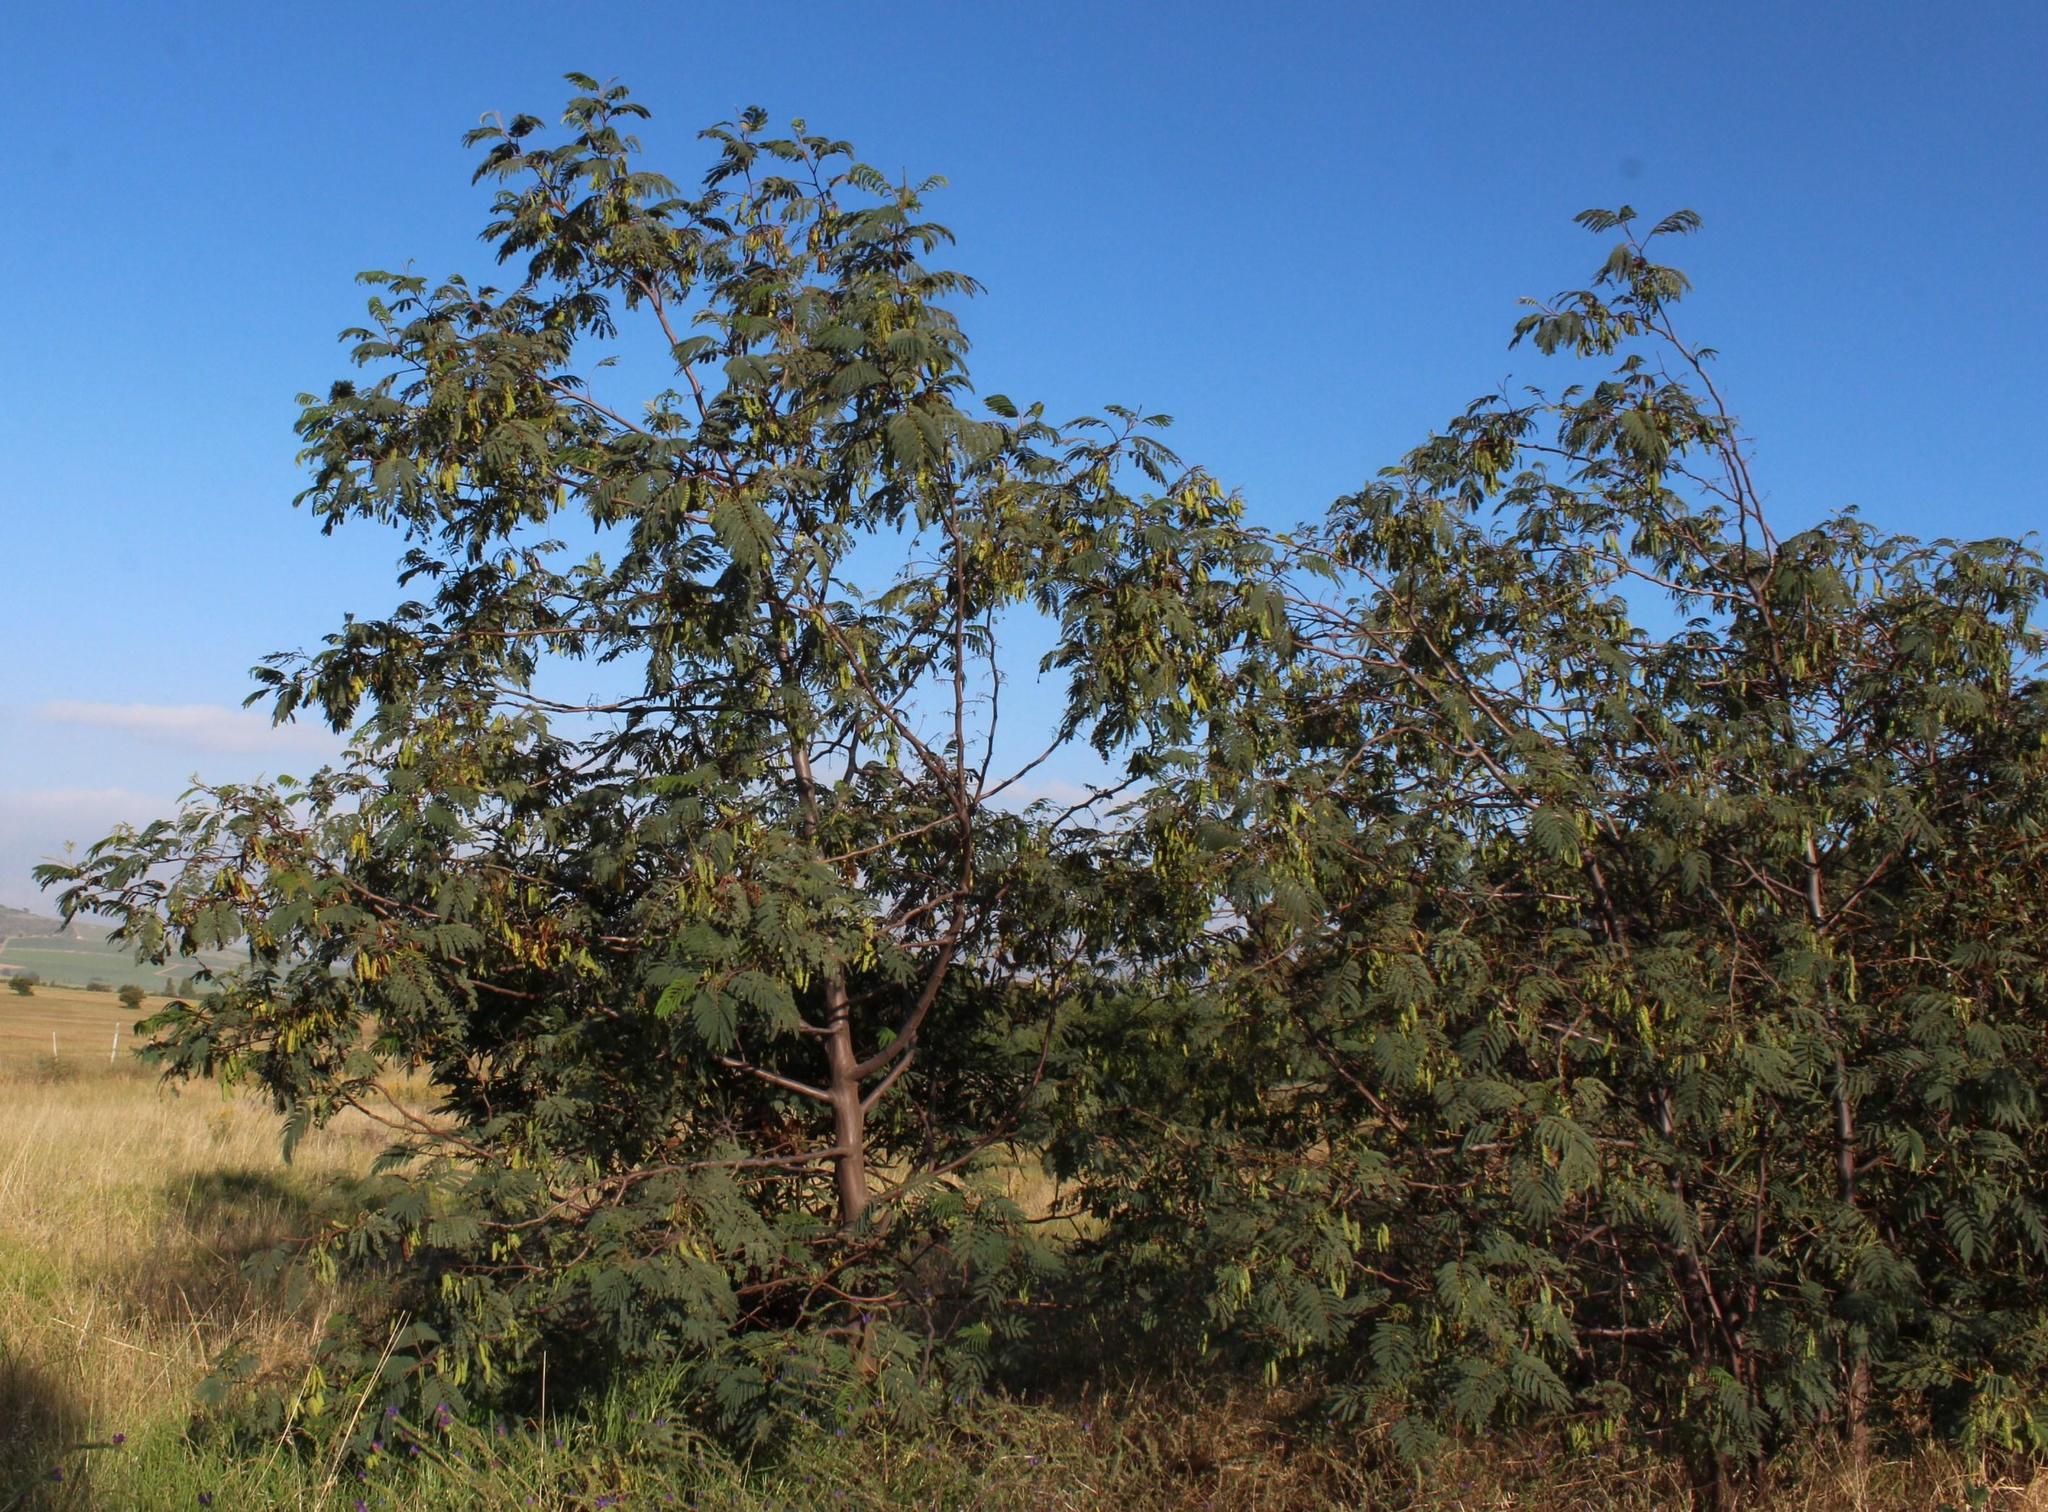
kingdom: Plantae
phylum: Tracheophyta
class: Magnoliopsida
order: Fabales
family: Fabaceae
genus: Paraserianthes
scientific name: Paraserianthes lophantha
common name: Plume albizia
